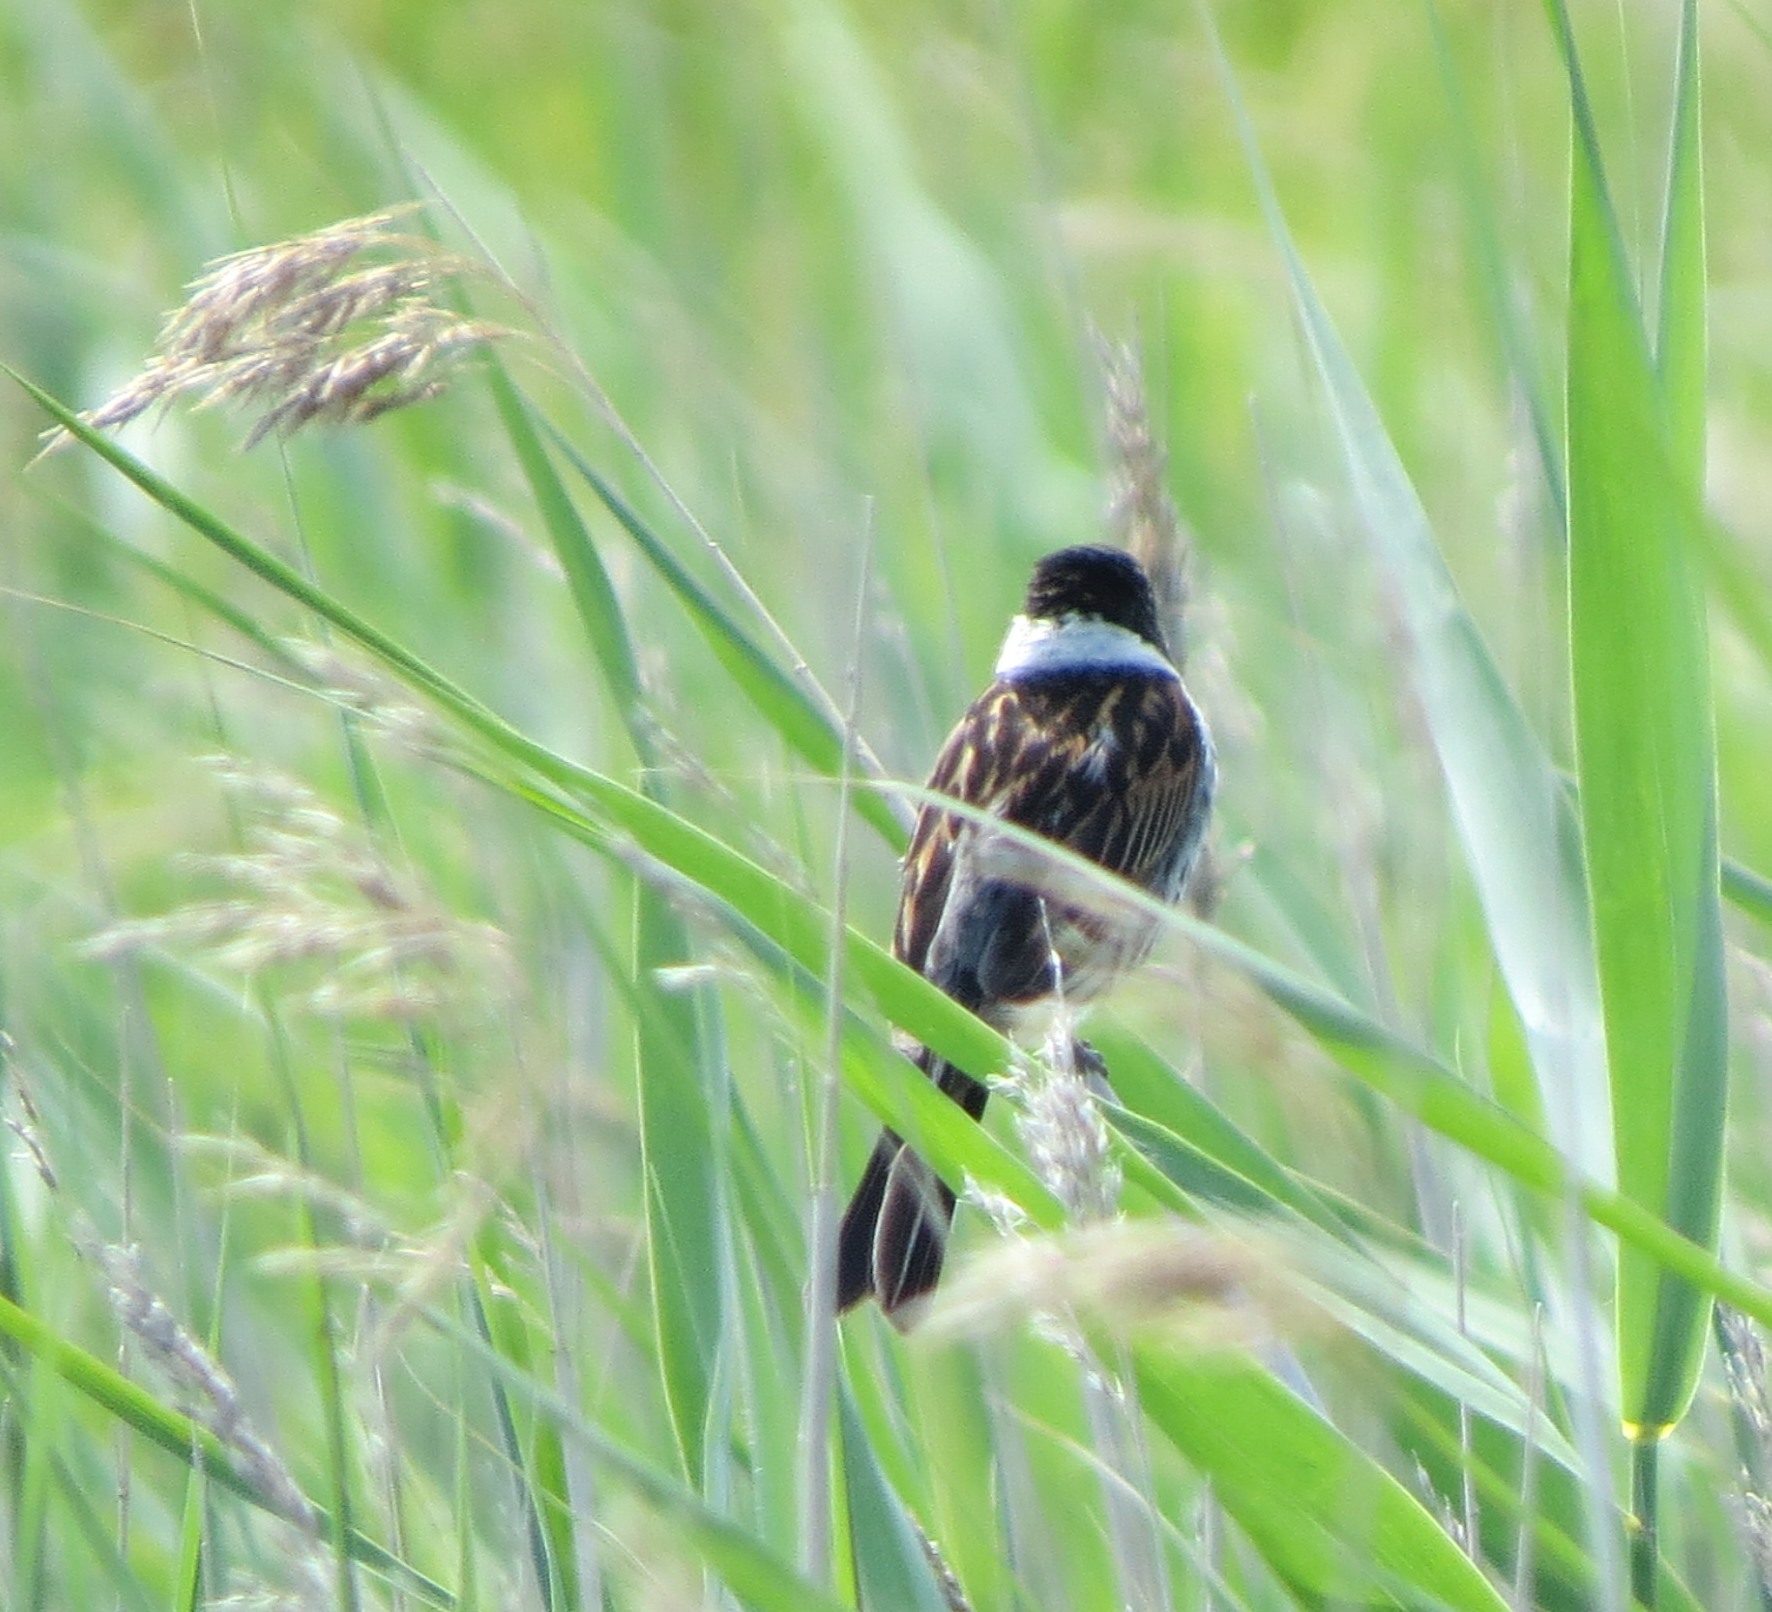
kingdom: Animalia
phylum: Chordata
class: Aves
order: Passeriformes
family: Emberizidae
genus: Emberiza
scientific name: Emberiza schoeniclus
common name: Reed bunting
